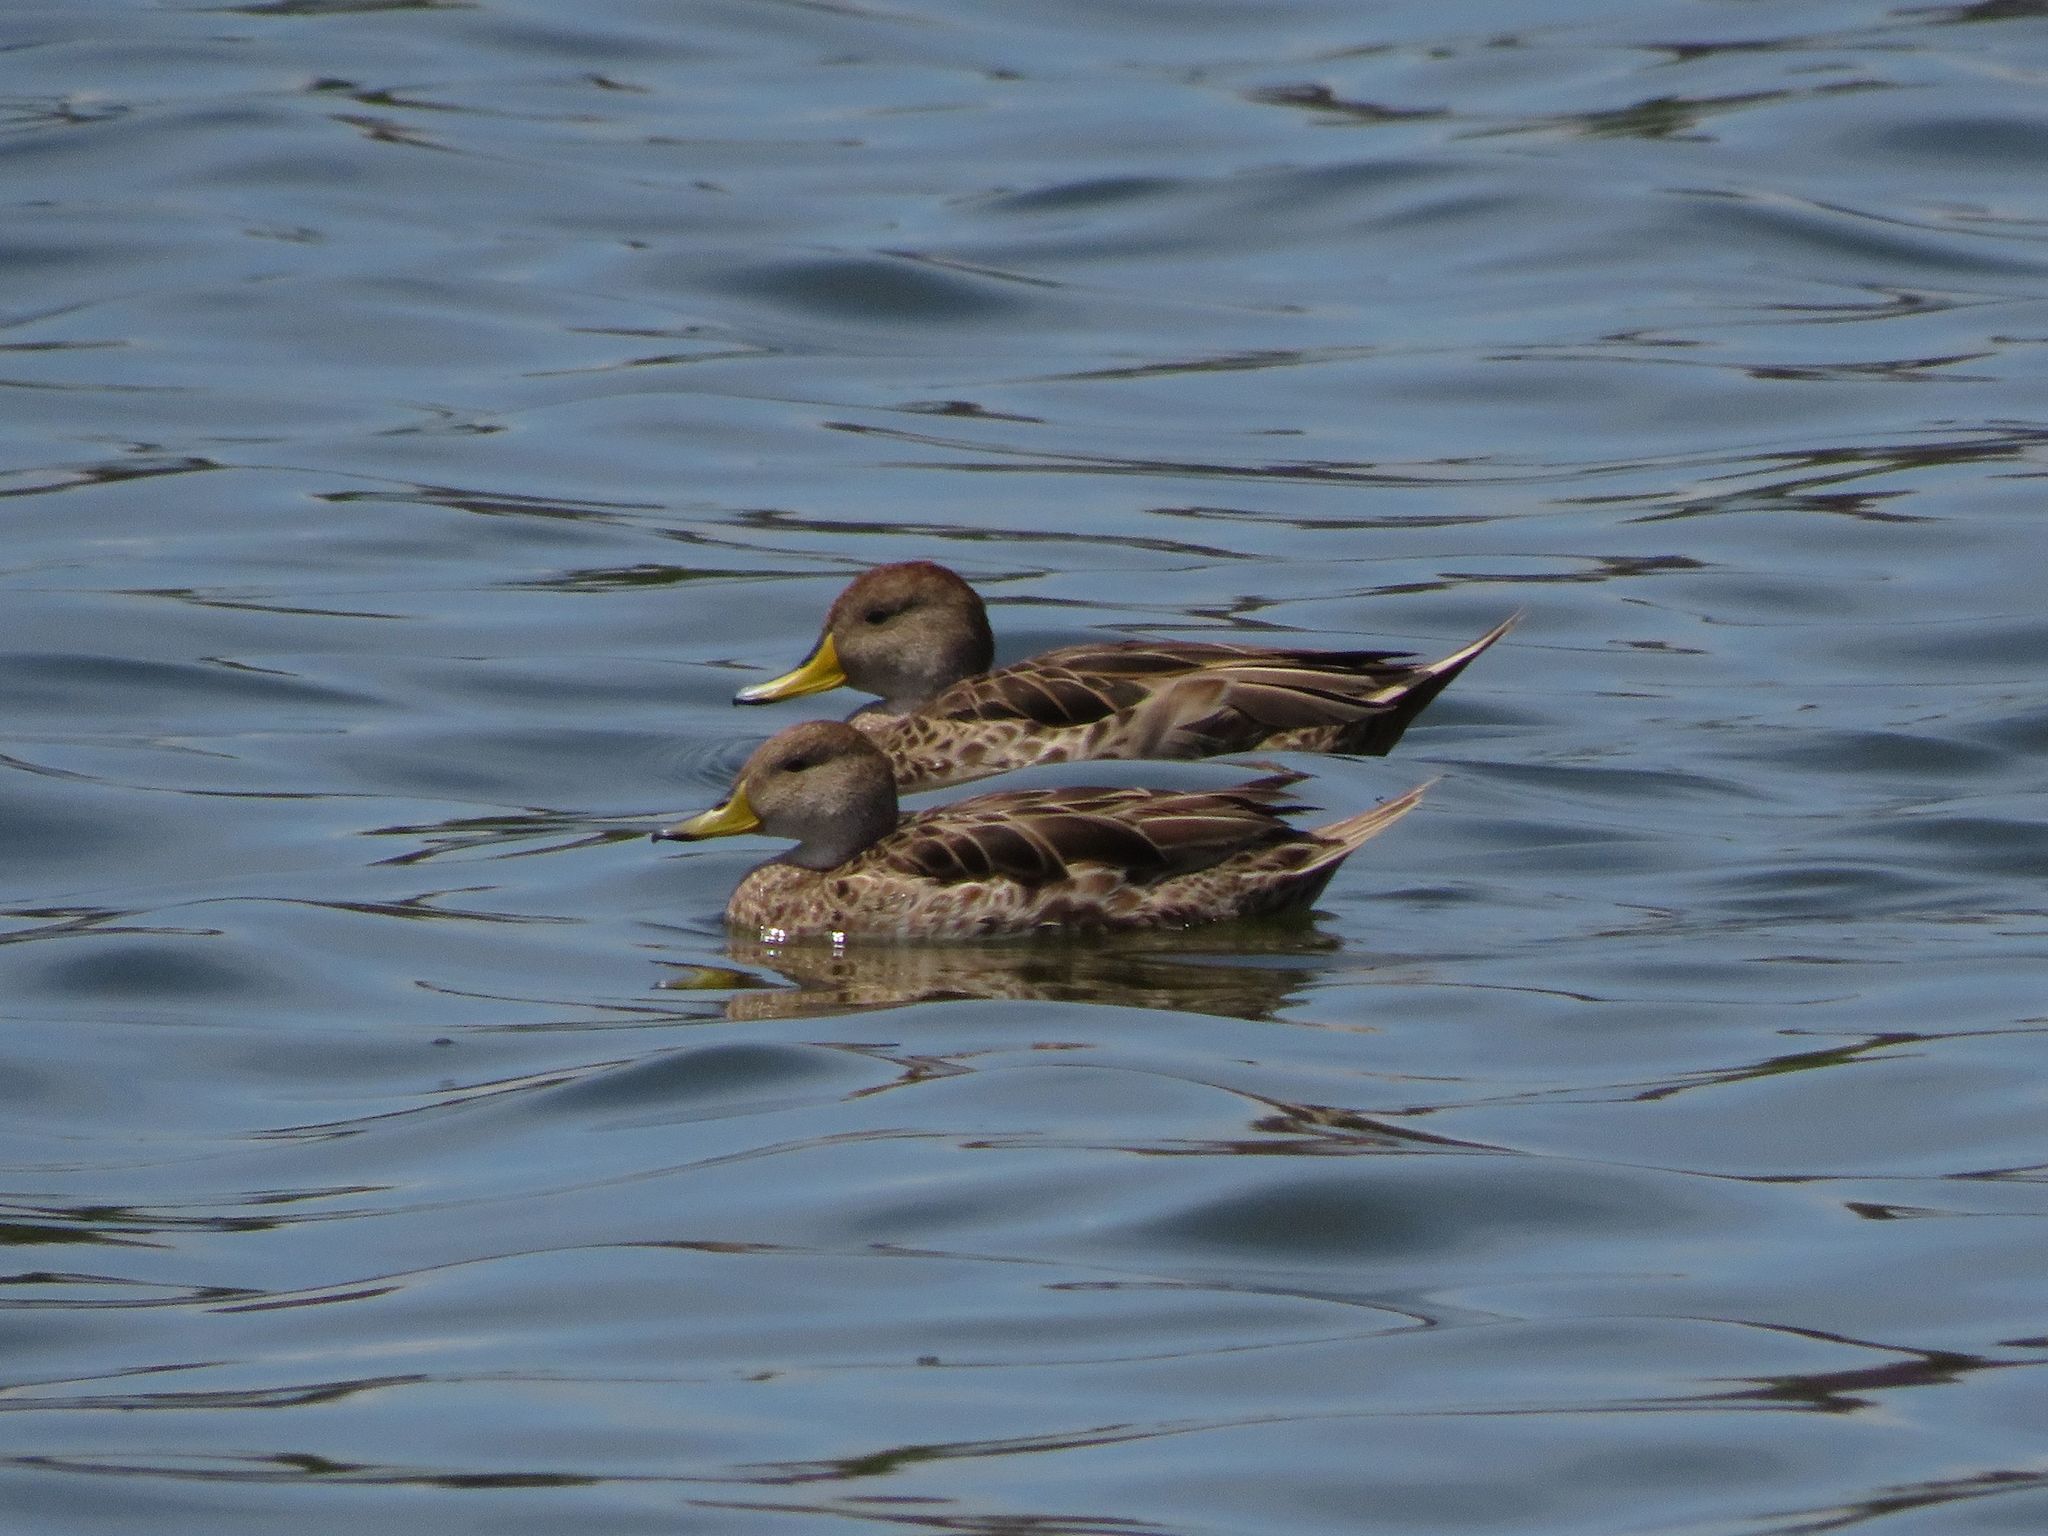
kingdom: Animalia
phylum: Chordata
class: Aves
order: Anseriformes
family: Anatidae
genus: Anas
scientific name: Anas georgica
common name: Yellow-billed pintail
